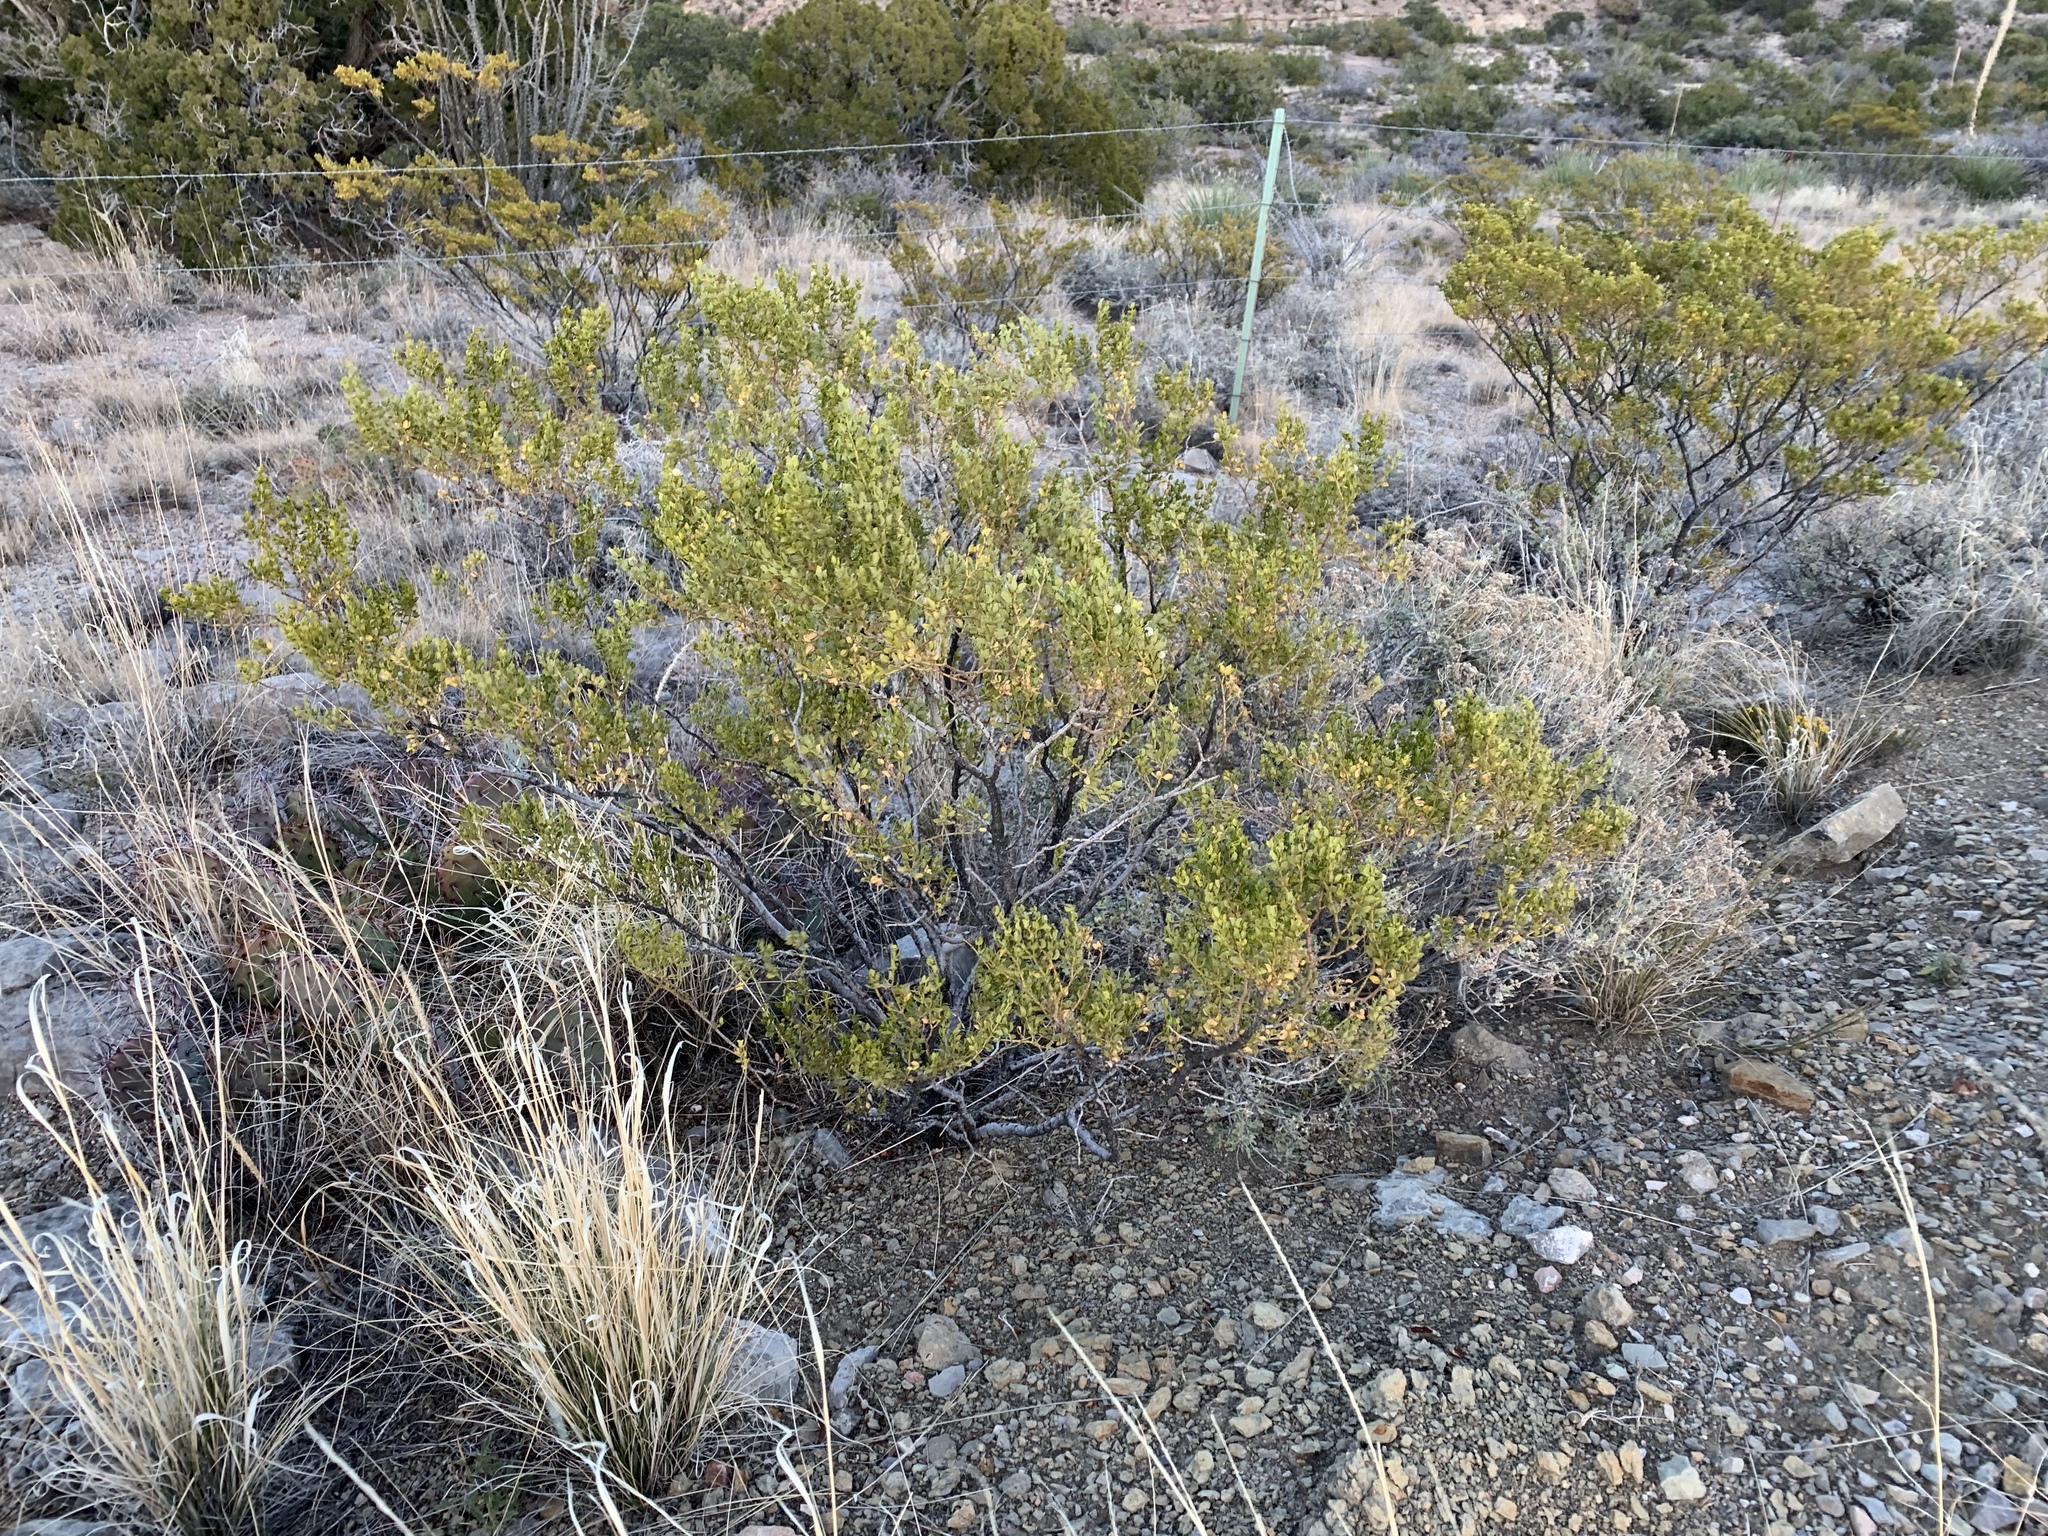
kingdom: Plantae
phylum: Tracheophyta
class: Magnoliopsida
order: Zygophyllales
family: Zygophyllaceae
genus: Larrea
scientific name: Larrea tridentata
